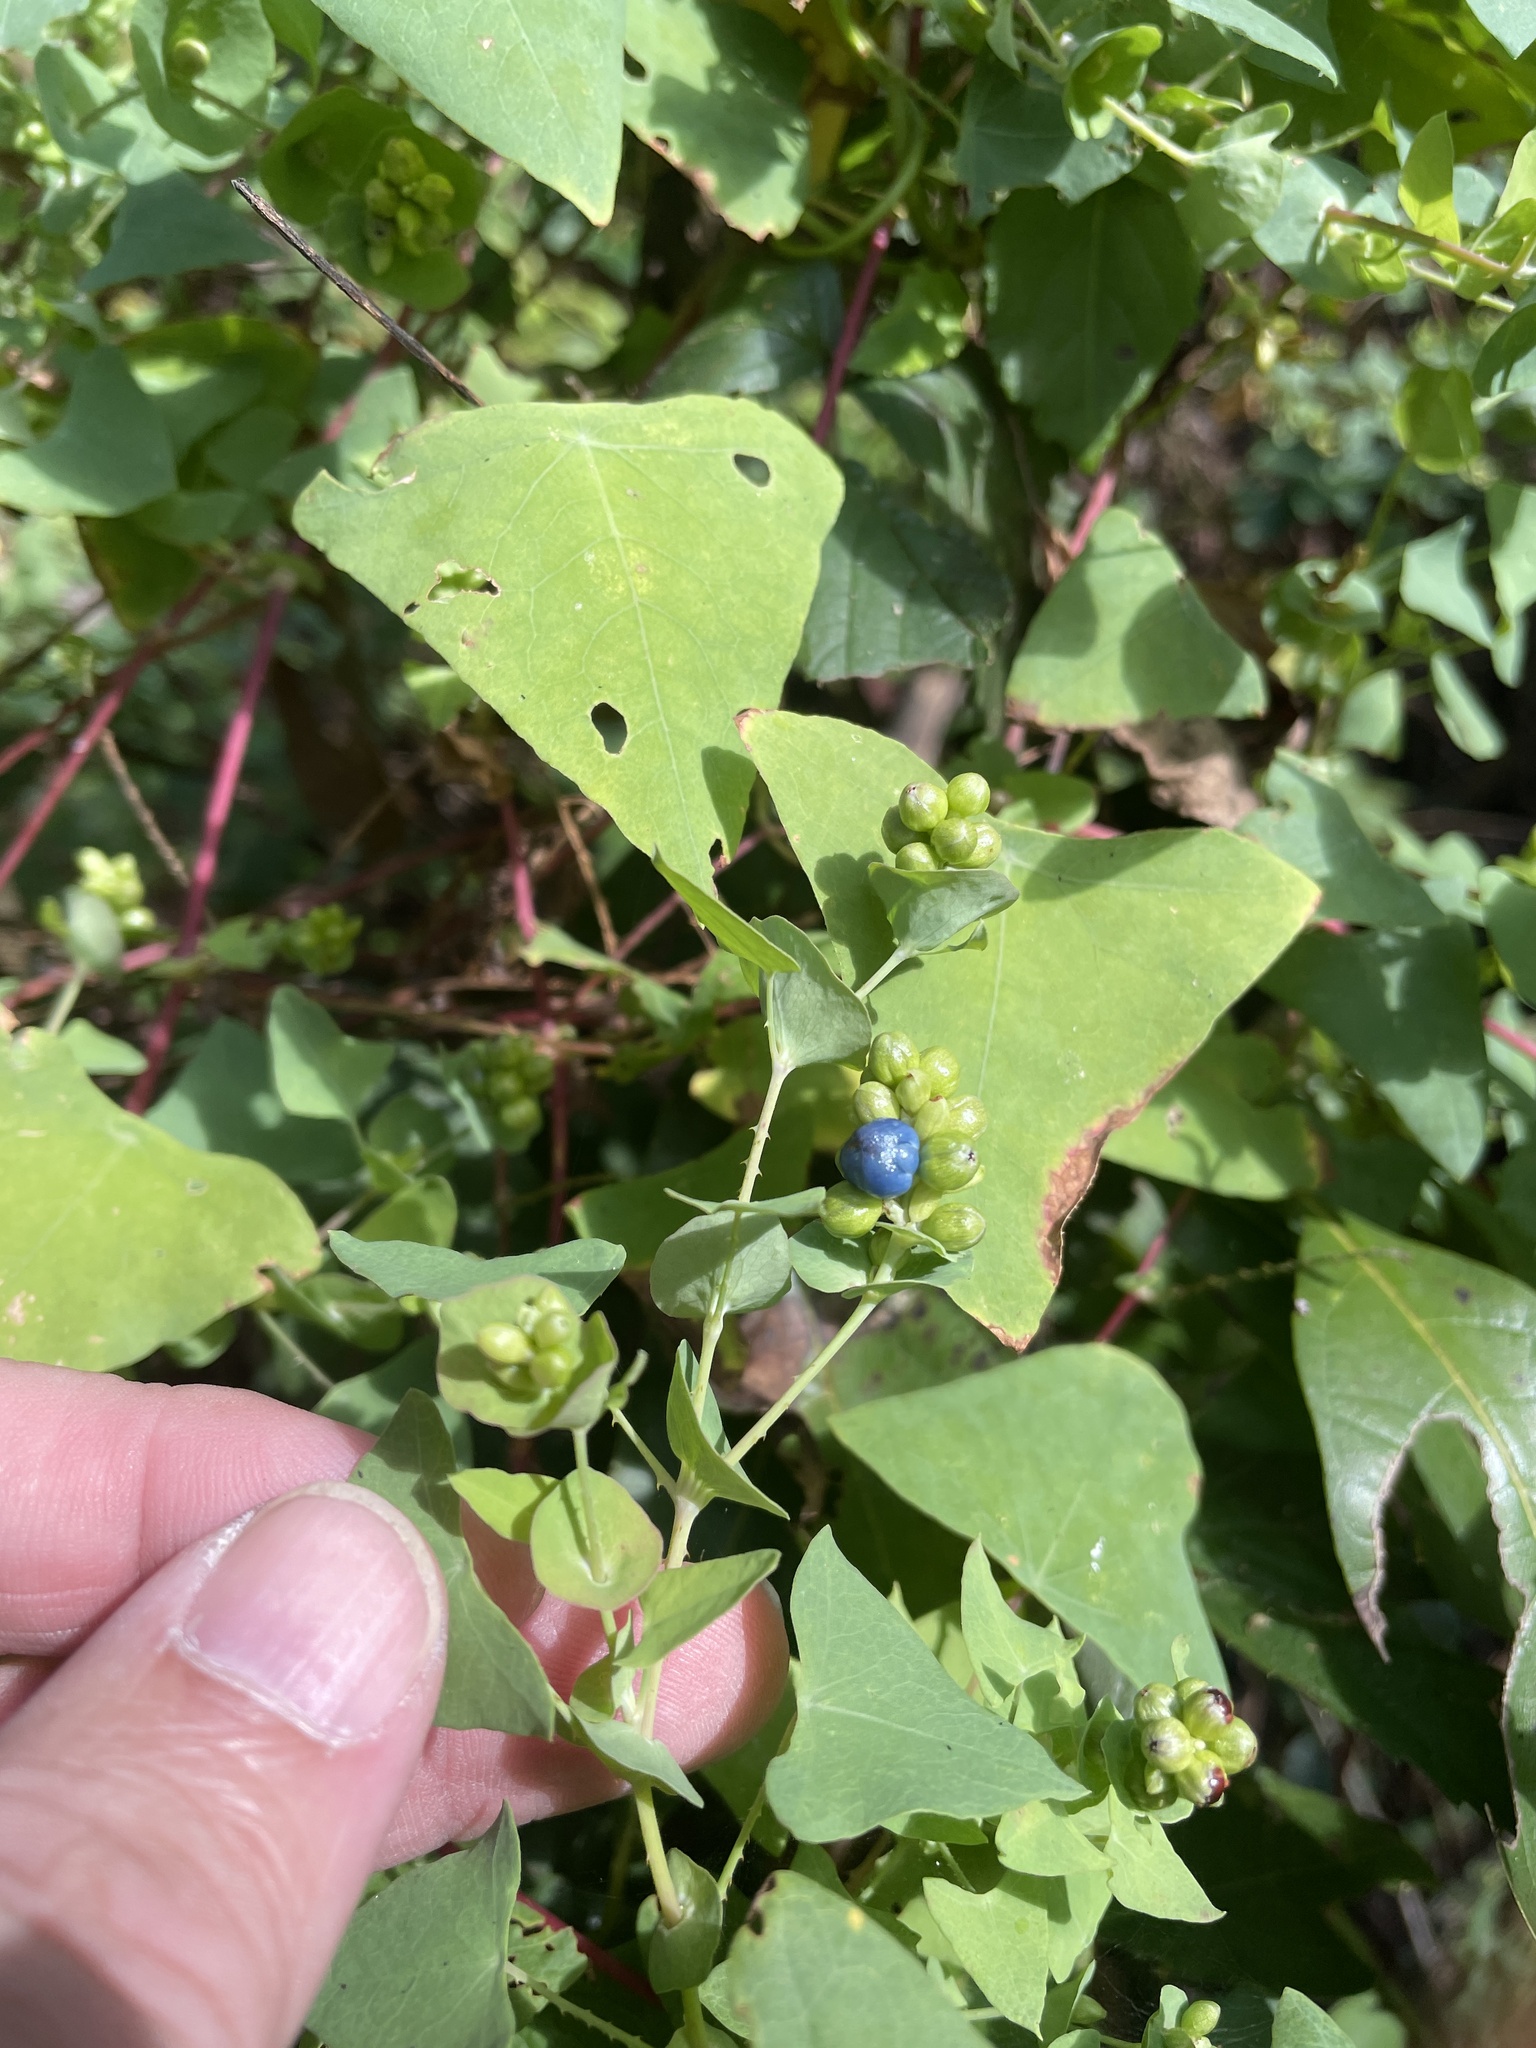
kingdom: Plantae
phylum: Tracheophyta
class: Magnoliopsida
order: Caryophyllales
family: Polygonaceae
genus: Persicaria
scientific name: Persicaria perfoliata
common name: Asiatic tearthumb
